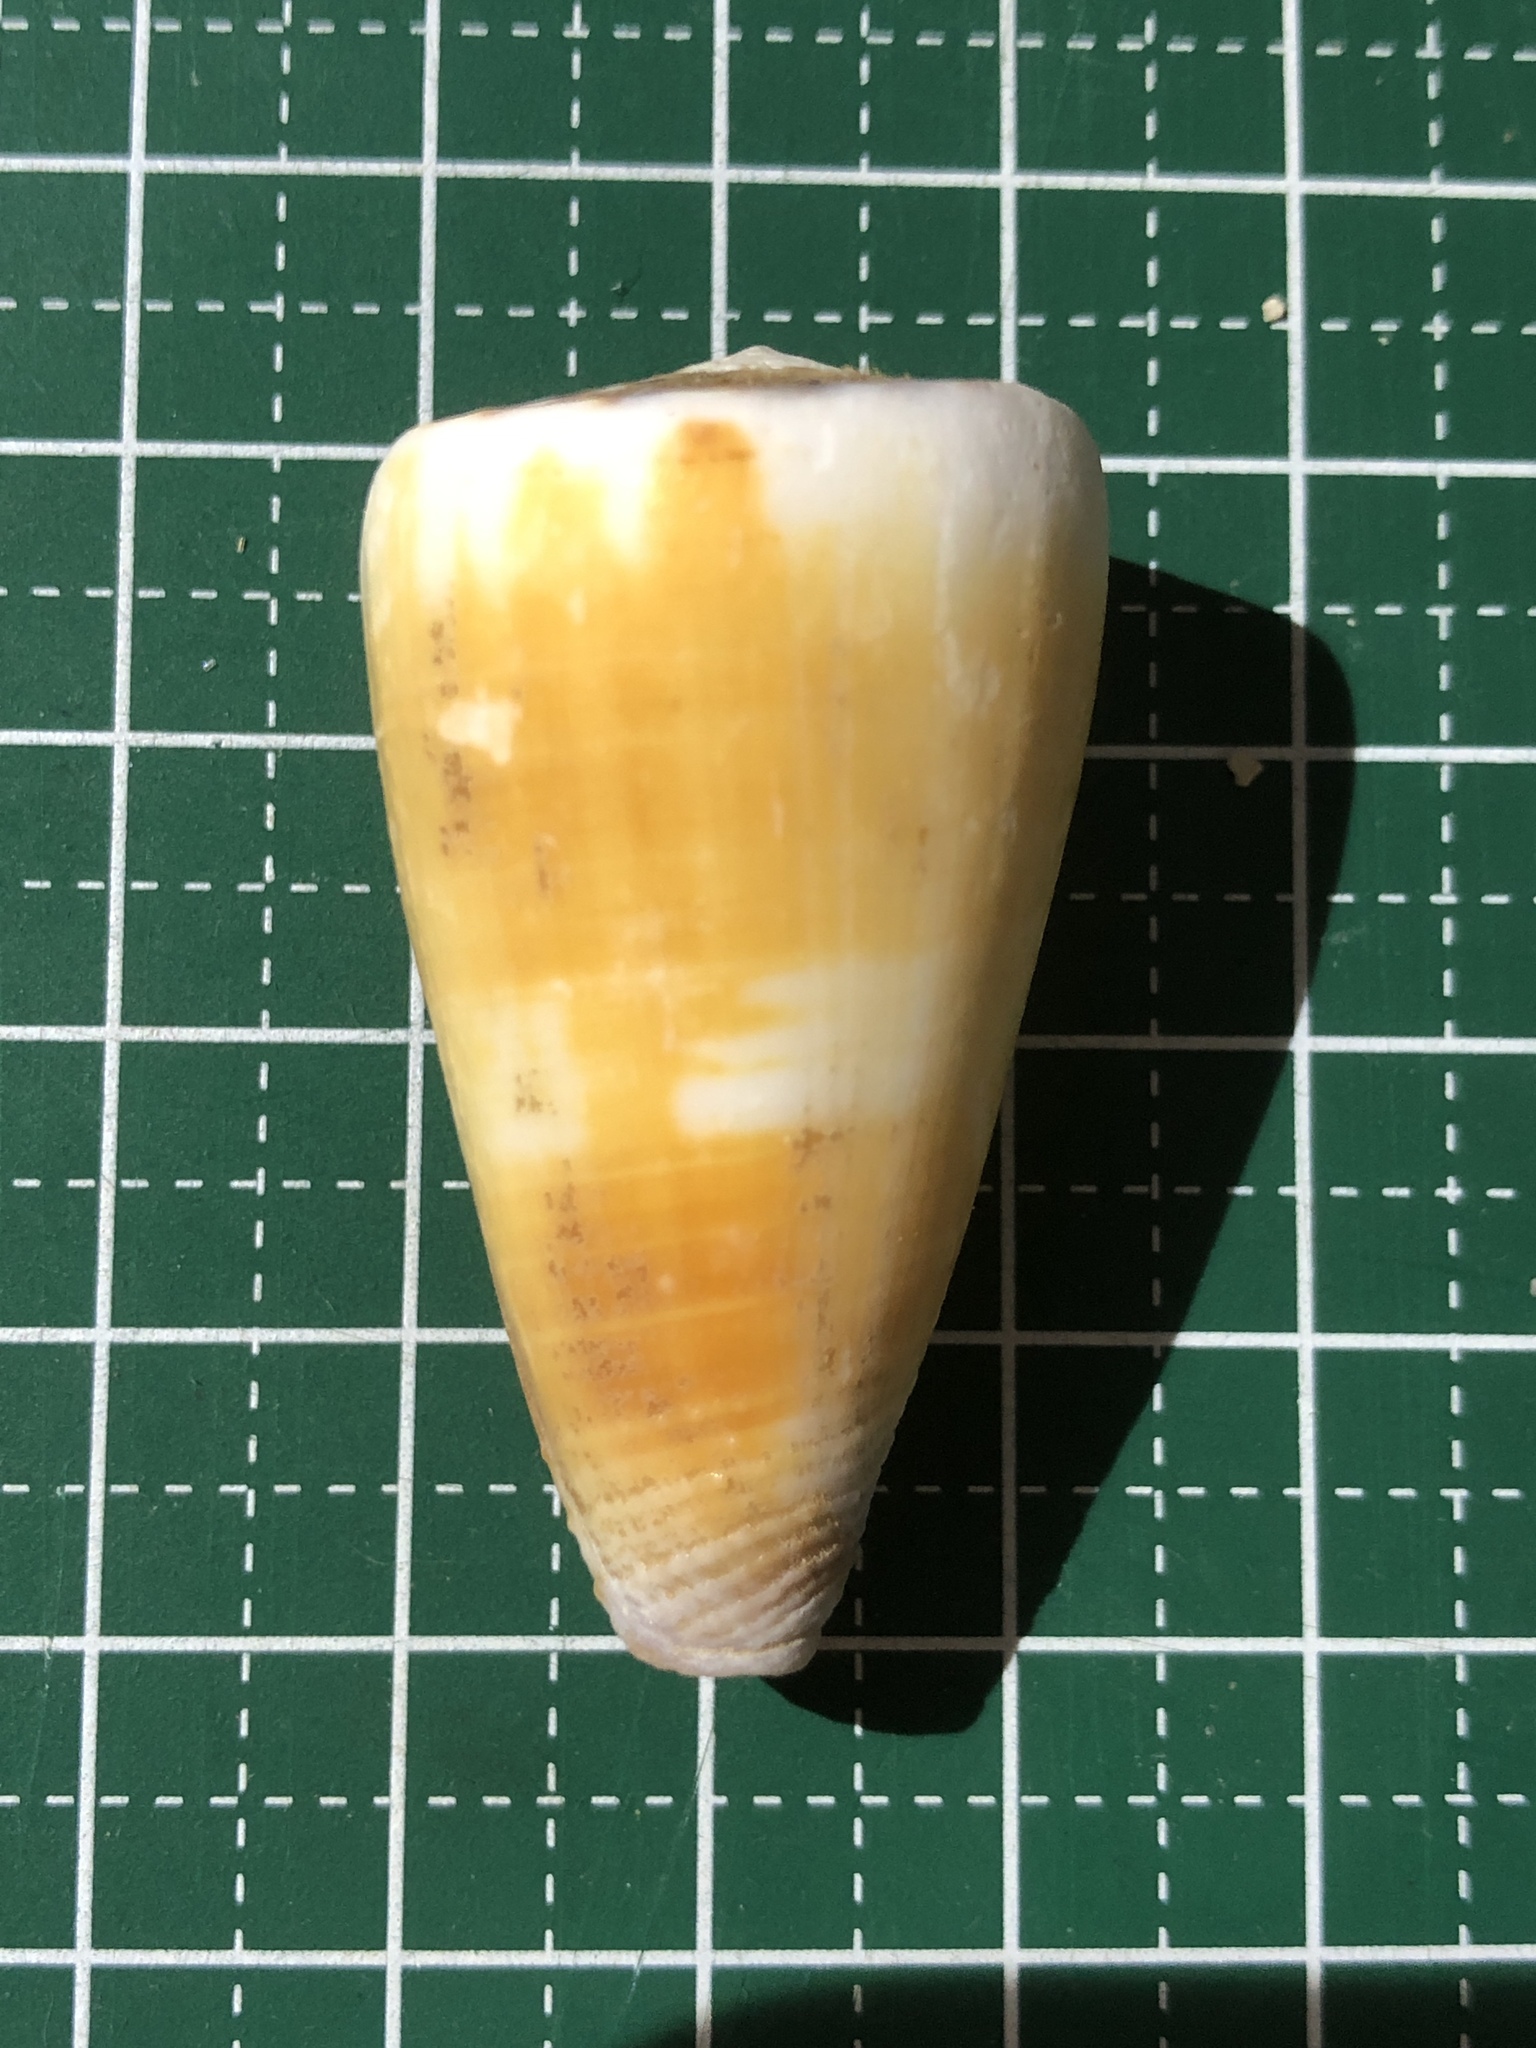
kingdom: Animalia
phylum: Mollusca
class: Gastropoda
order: Neogastropoda
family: Conidae
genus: Conus
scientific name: Conus planorbis
